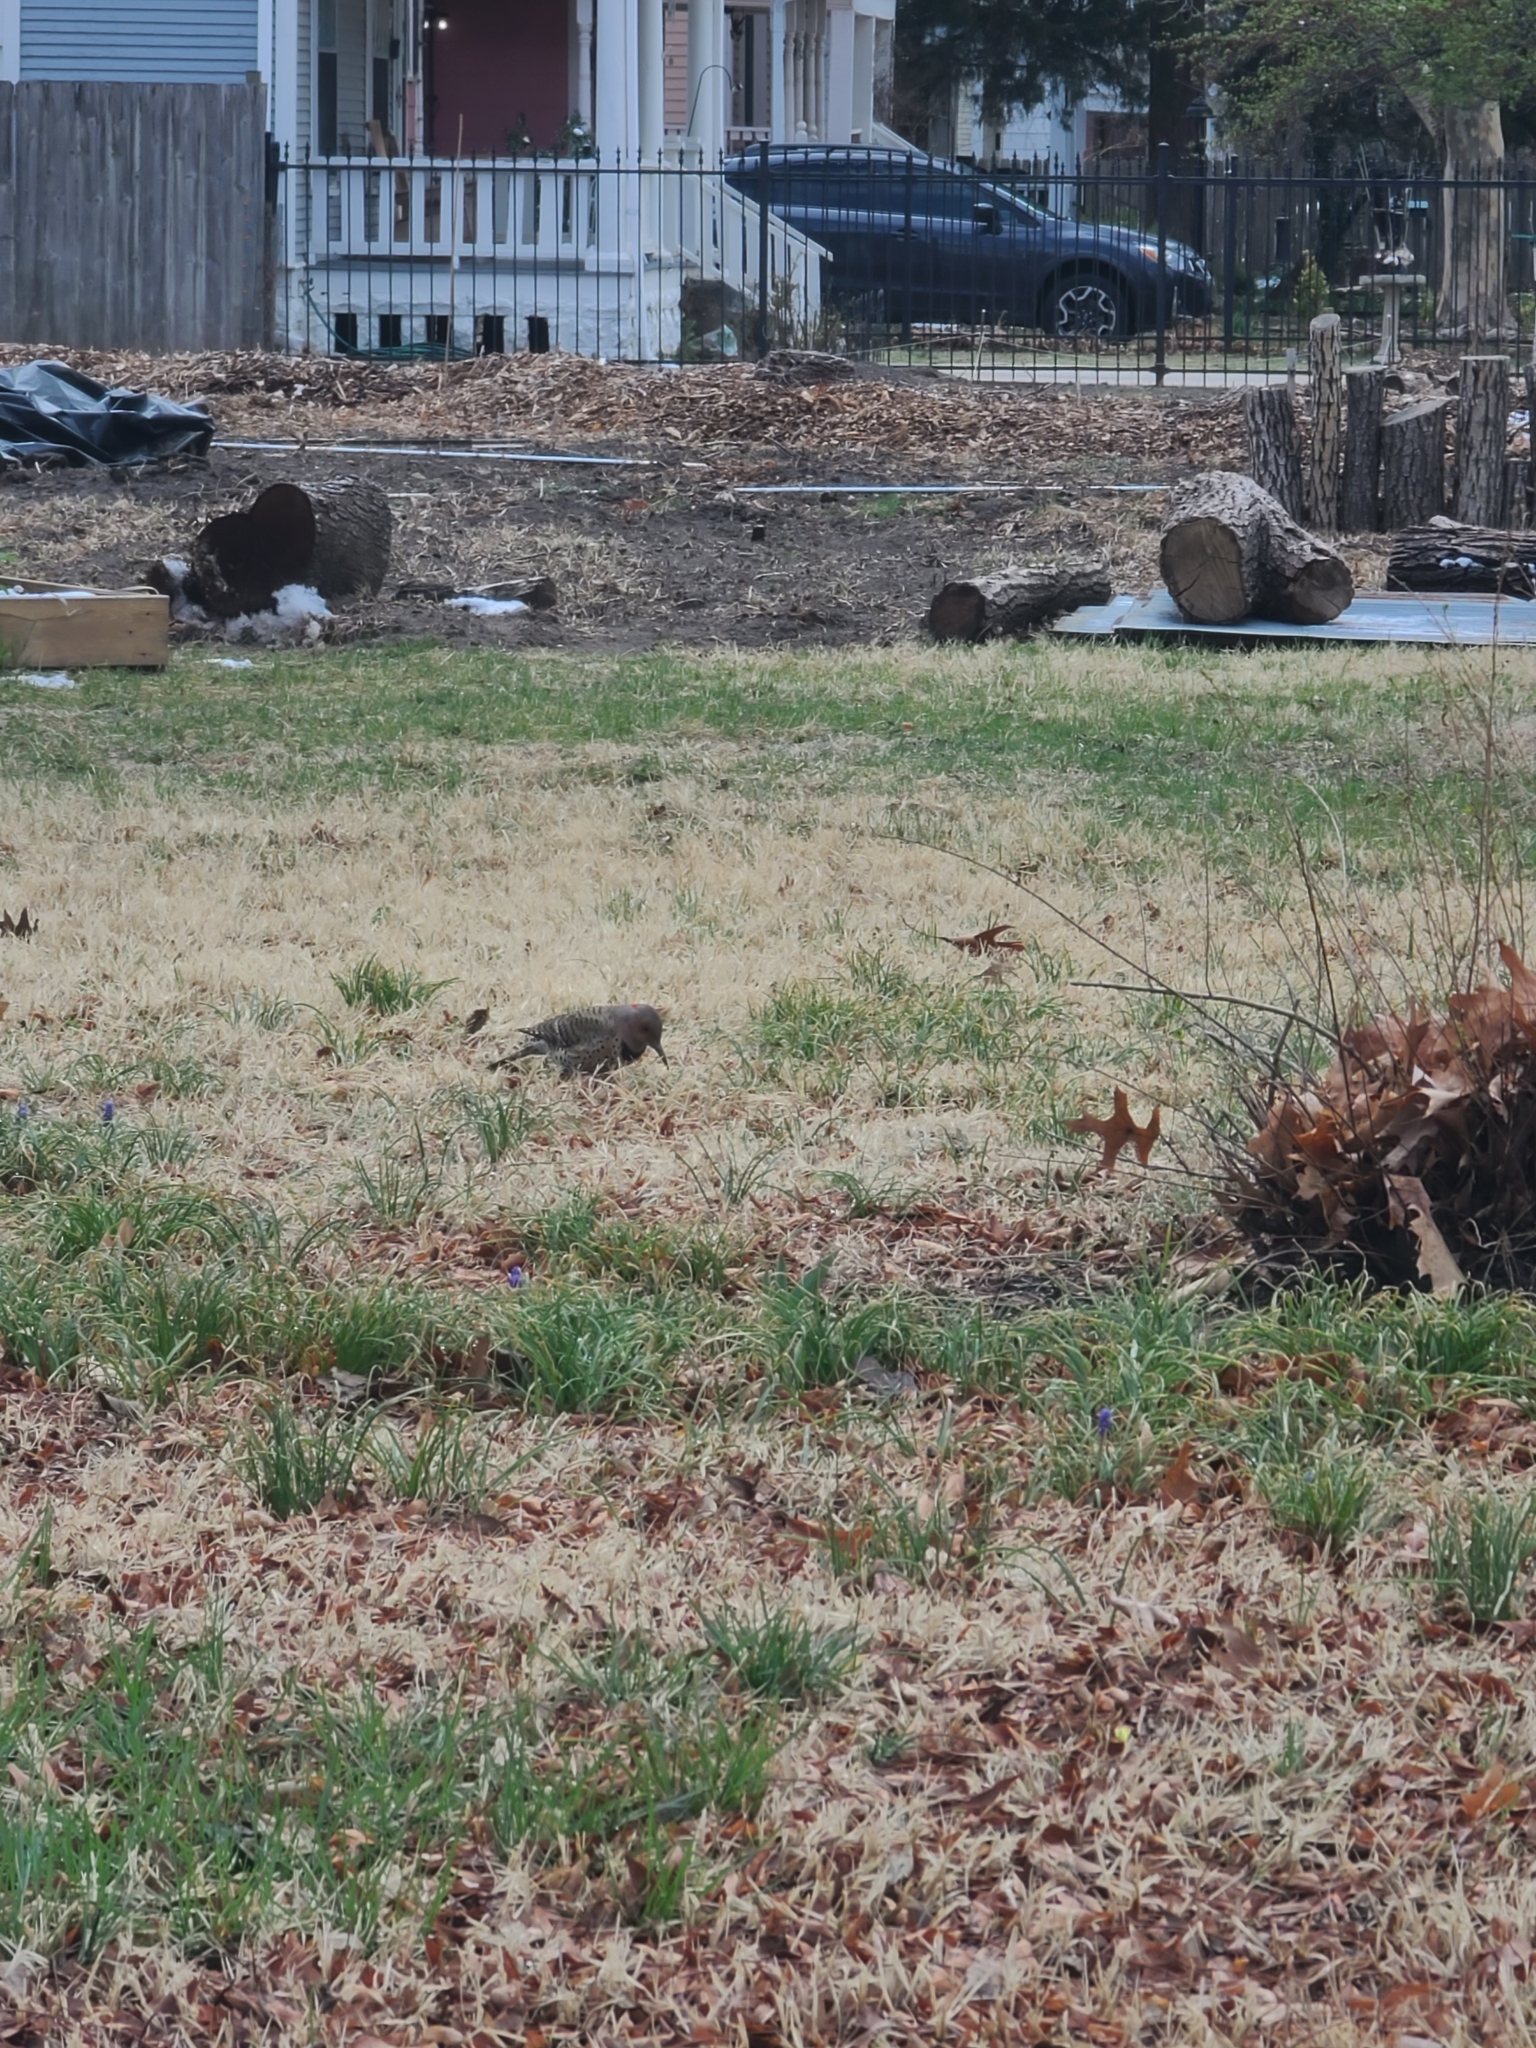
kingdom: Animalia
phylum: Chordata
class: Aves
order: Piciformes
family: Picidae
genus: Colaptes
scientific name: Colaptes auratus
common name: Northern flicker
